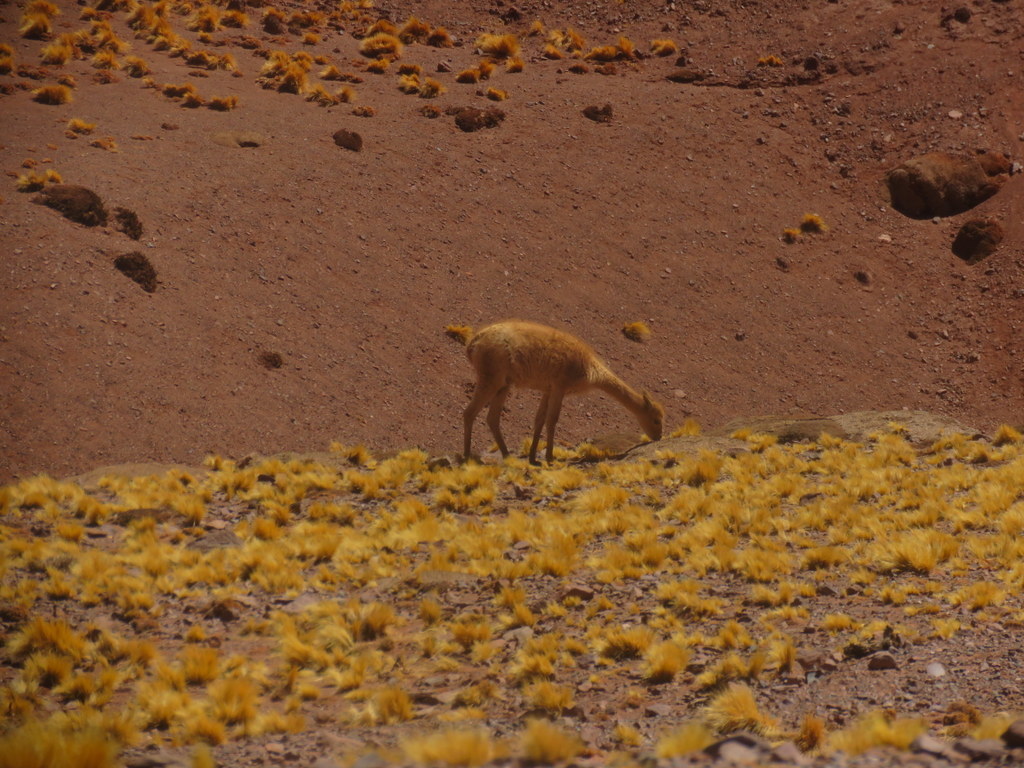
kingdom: Animalia
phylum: Chordata
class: Mammalia
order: Artiodactyla
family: Camelidae
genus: Vicugna
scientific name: Vicugna vicugna
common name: Vicugna
